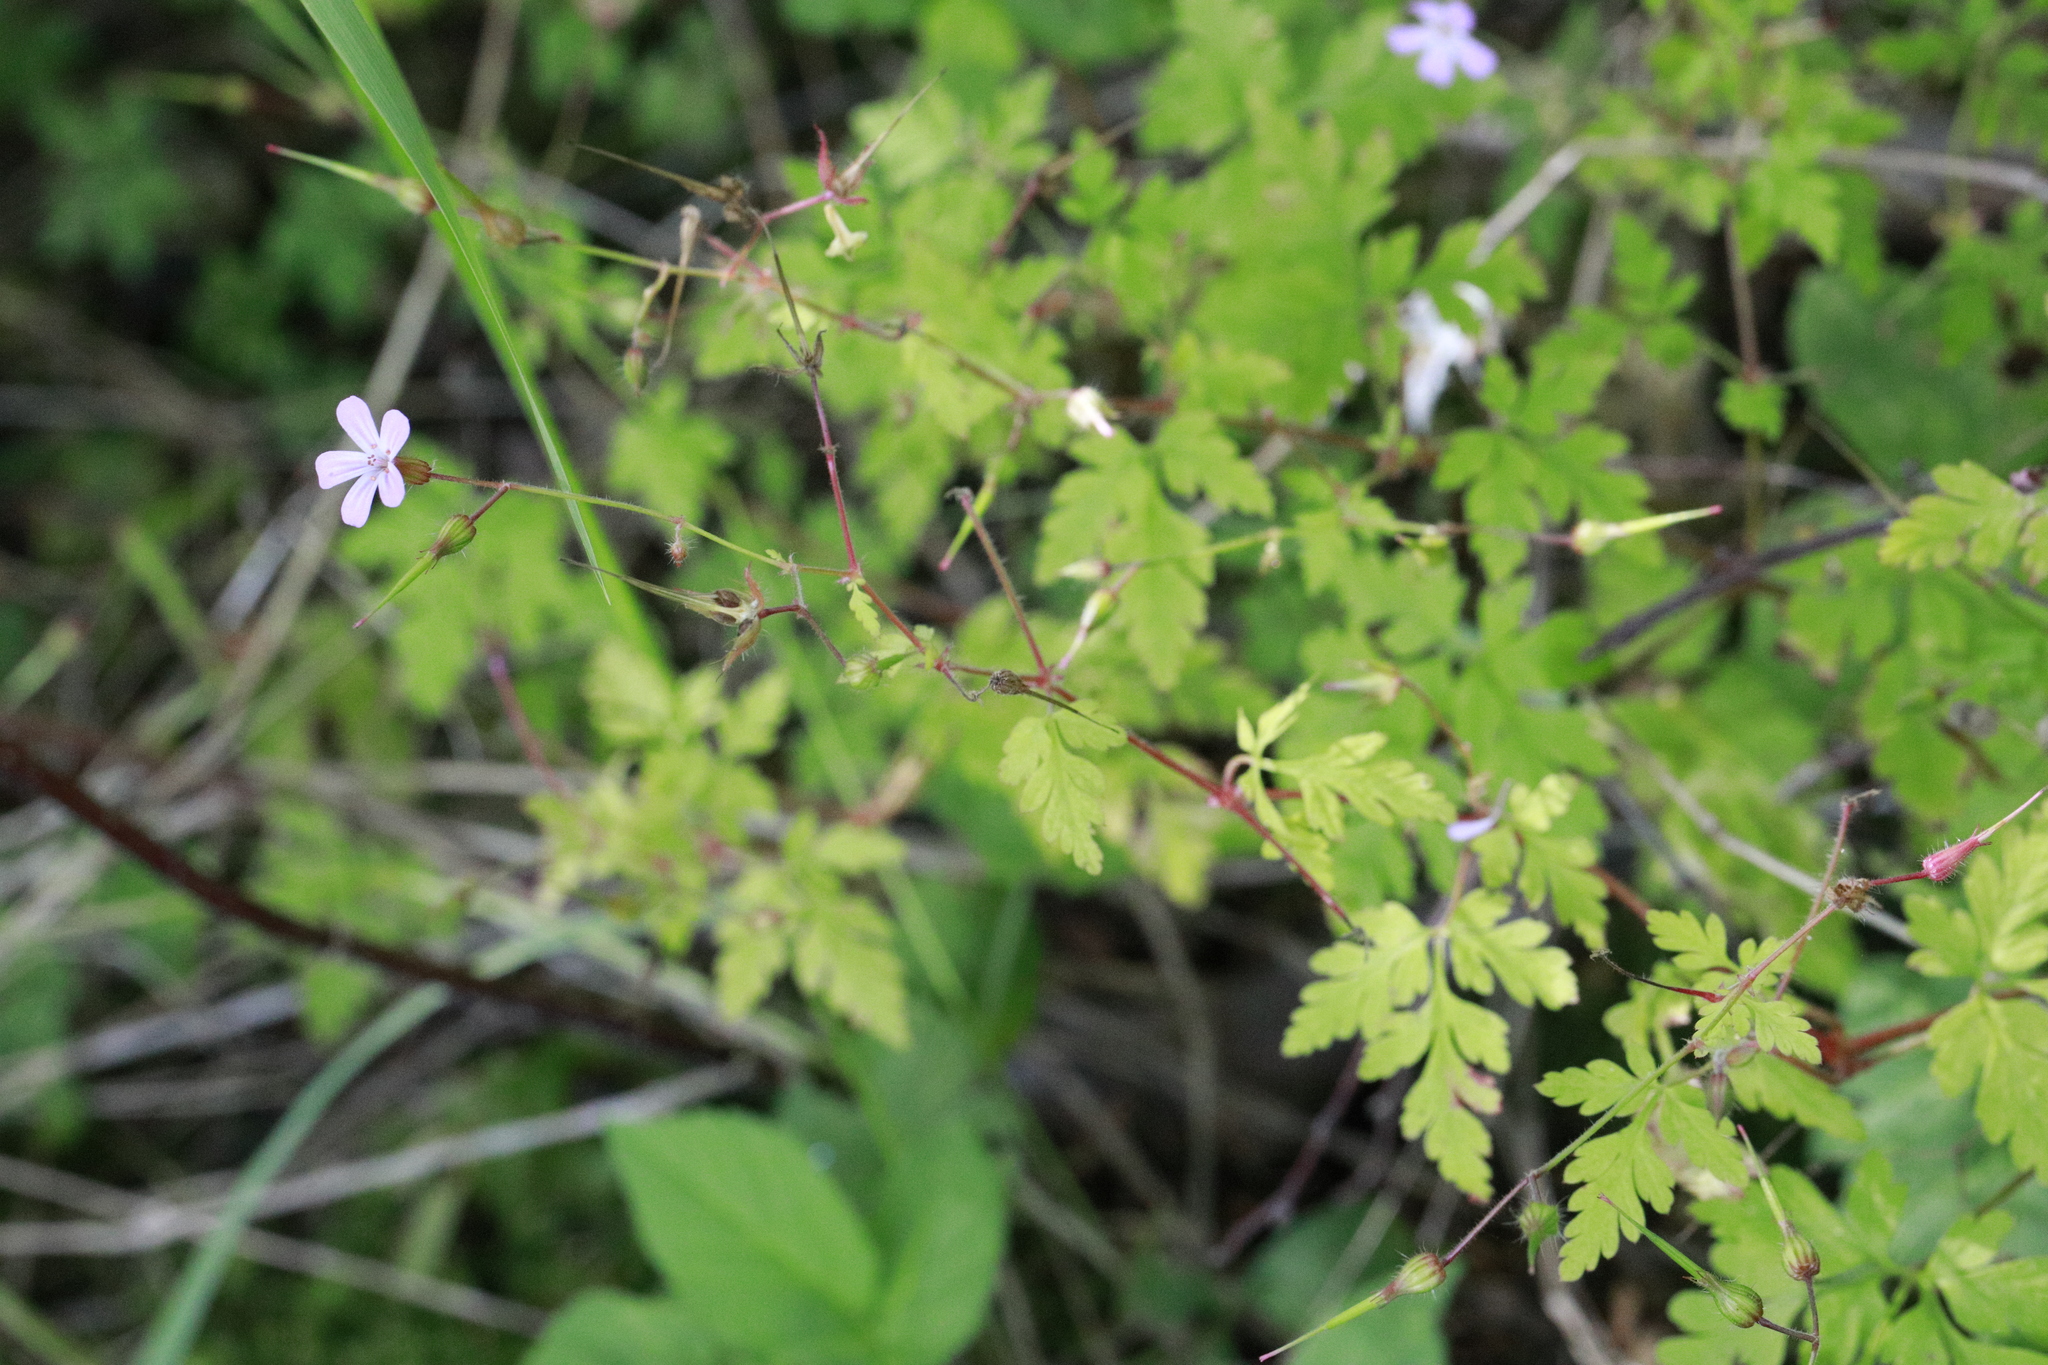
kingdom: Plantae
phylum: Tracheophyta
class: Magnoliopsida
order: Geraniales
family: Geraniaceae
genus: Geranium
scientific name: Geranium robertianum
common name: Herb-robert
